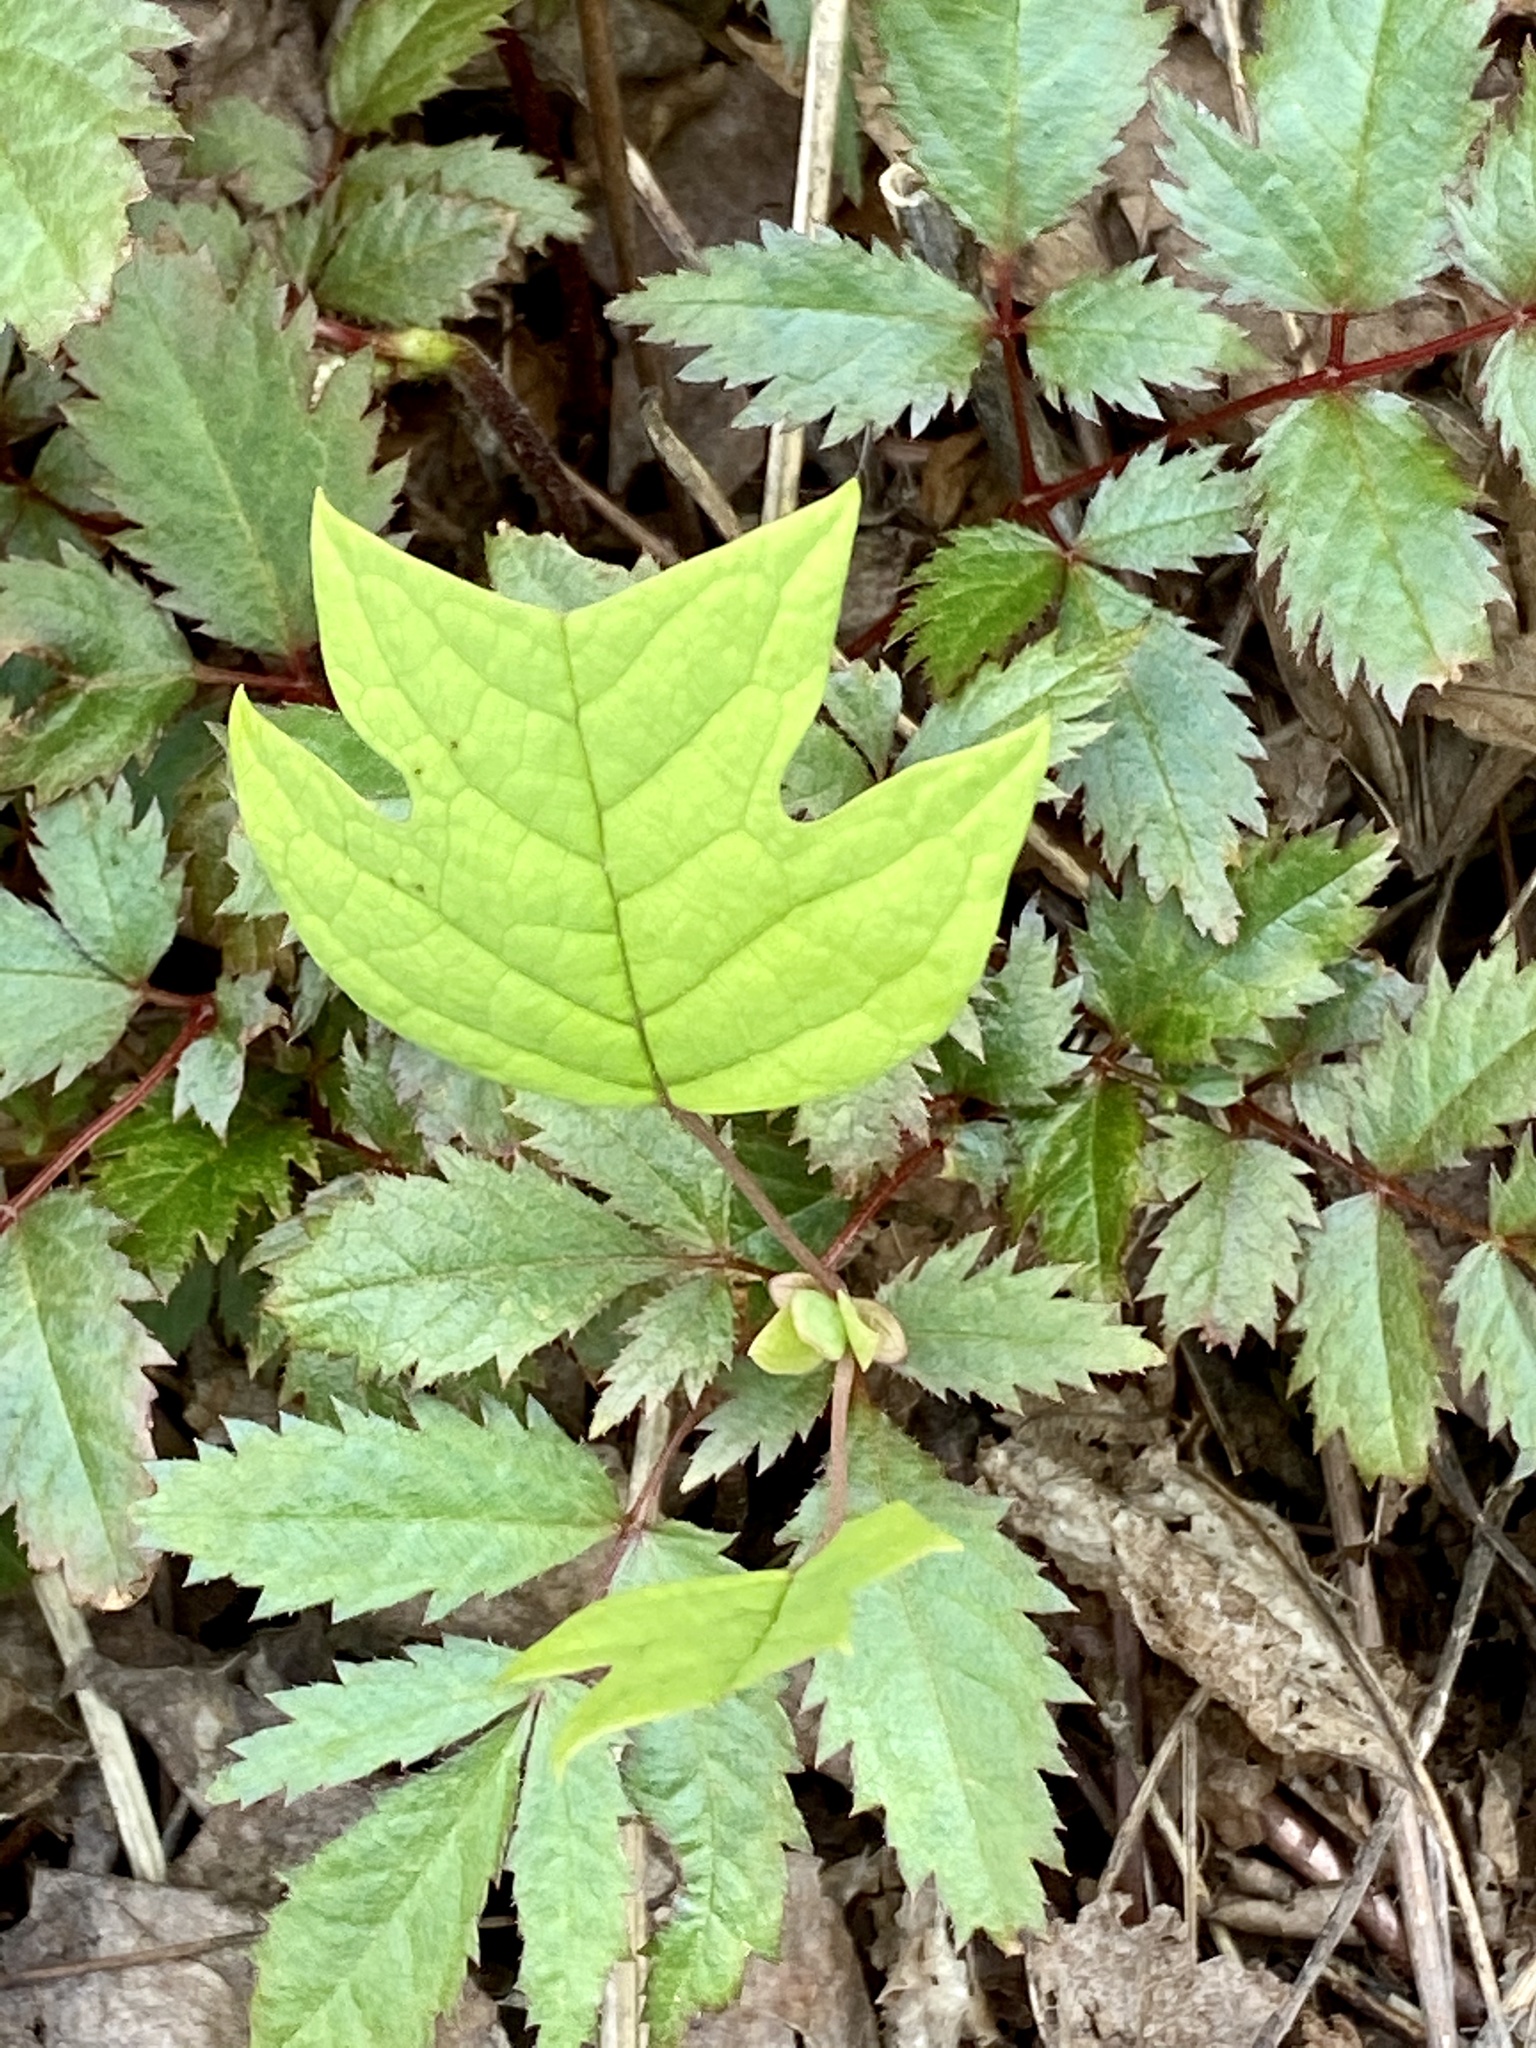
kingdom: Plantae
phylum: Tracheophyta
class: Magnoliopsida
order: Magnoliales
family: Magnoliaceae
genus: Liriodendron
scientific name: Liriodendron tulipifera
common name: Tulip tree
